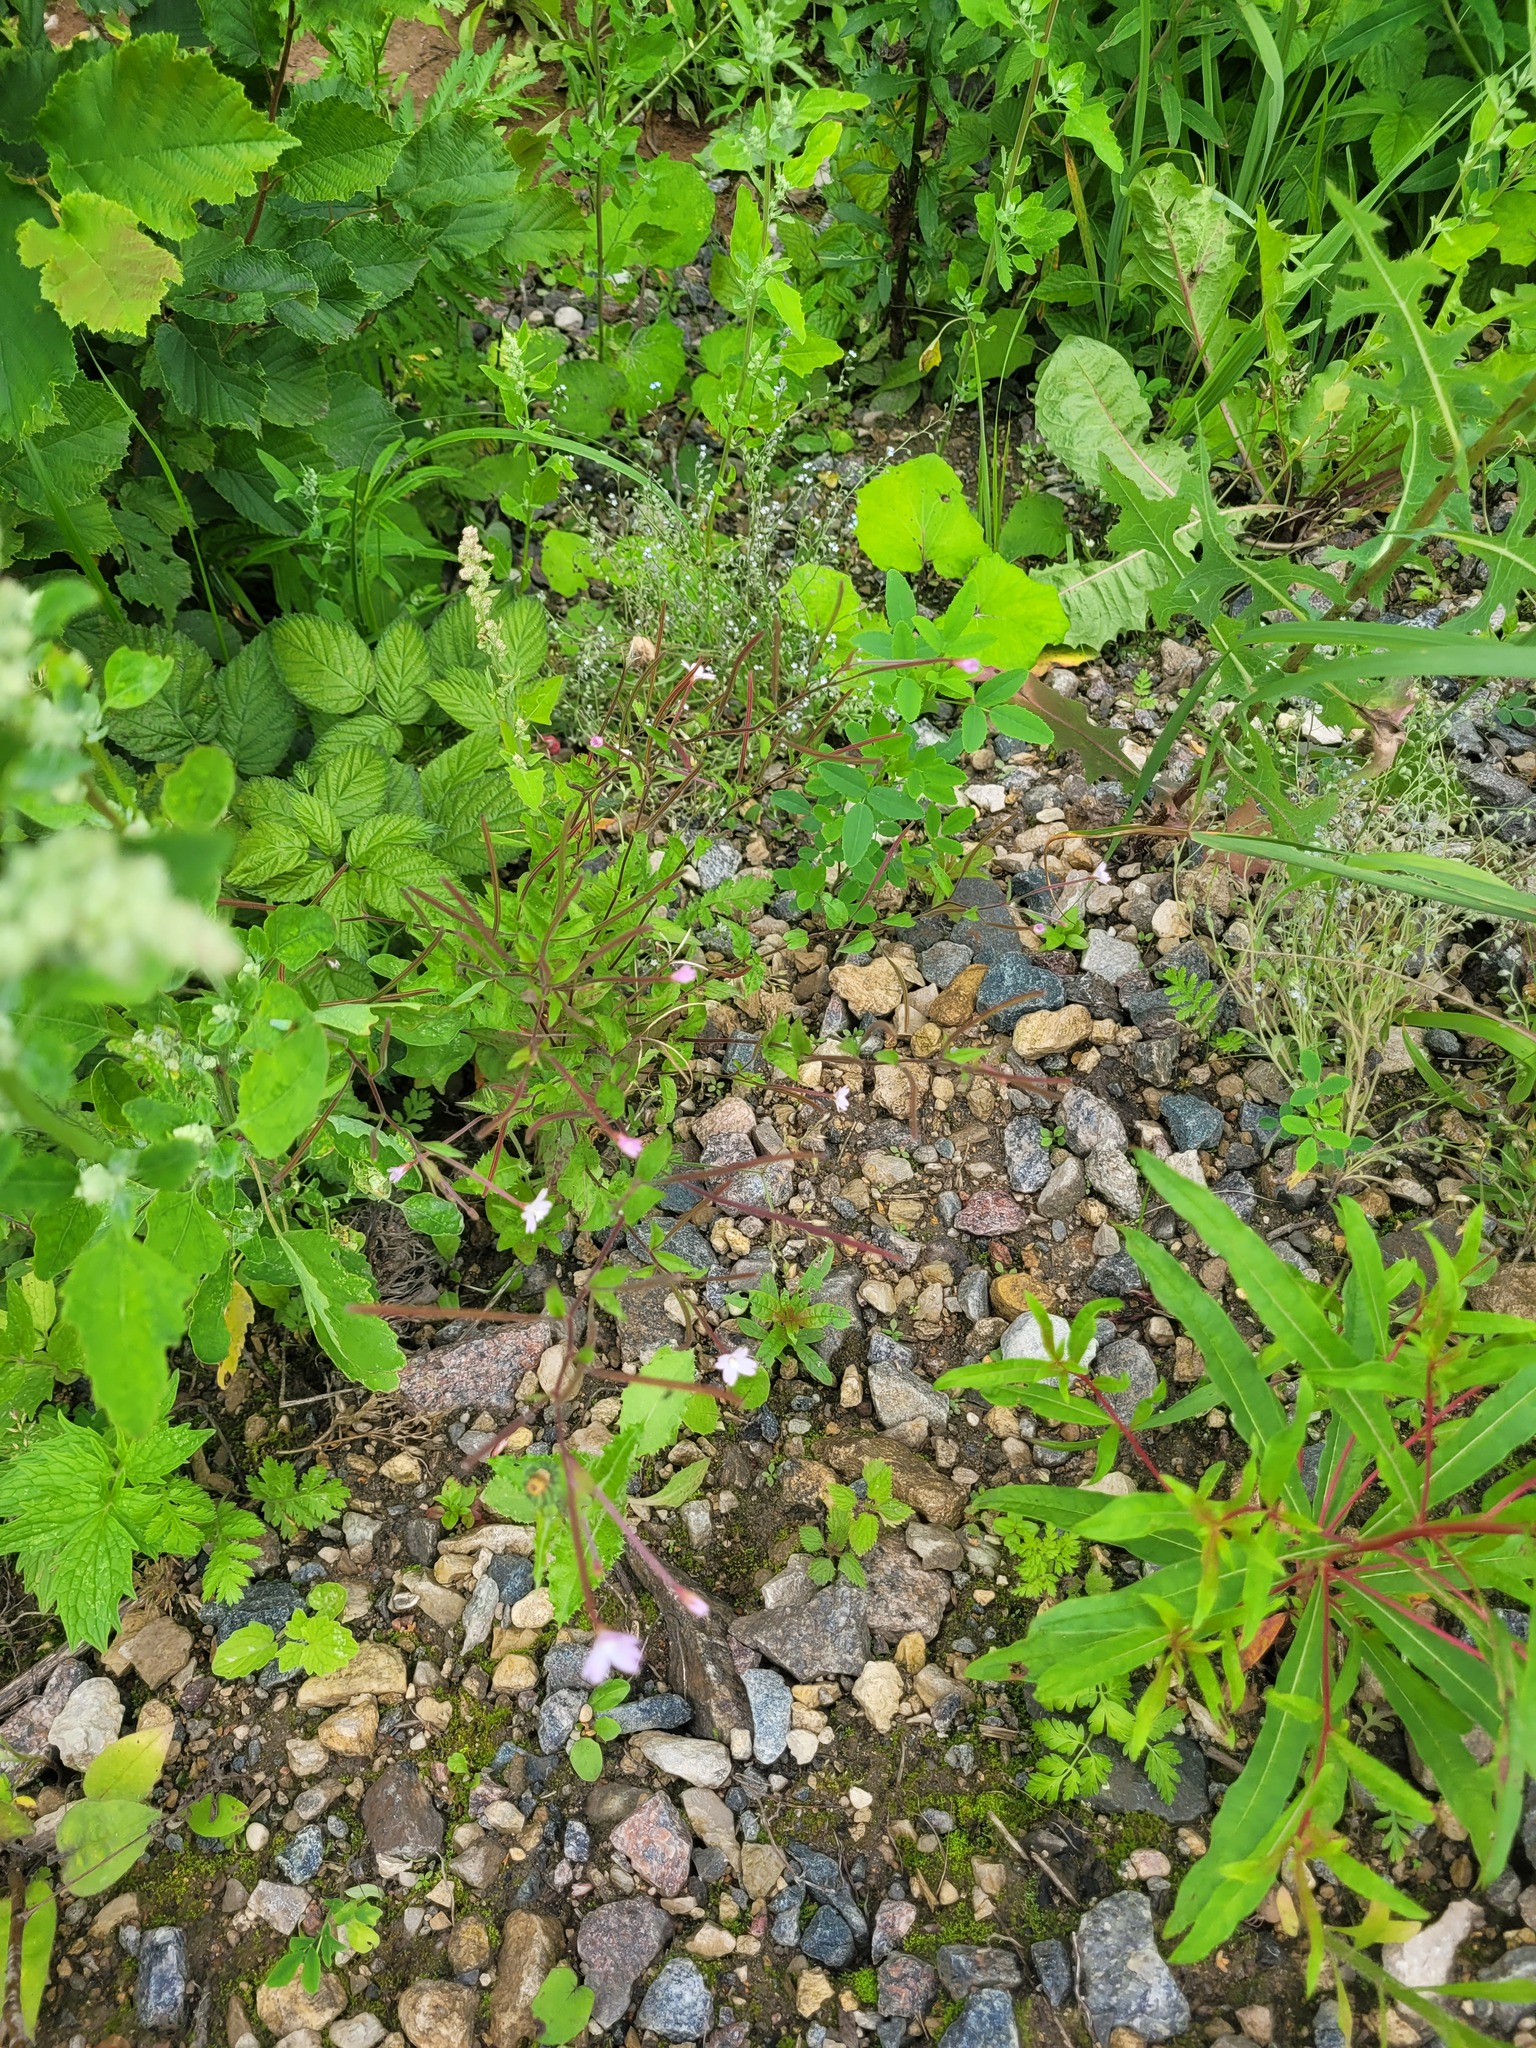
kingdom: Plantae
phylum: Tracheophyta
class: Magnoliopsida
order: Myrtales
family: Onagraceae
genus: Epilobium
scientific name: Epilobium montanum
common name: Broad-leaved willowherb
